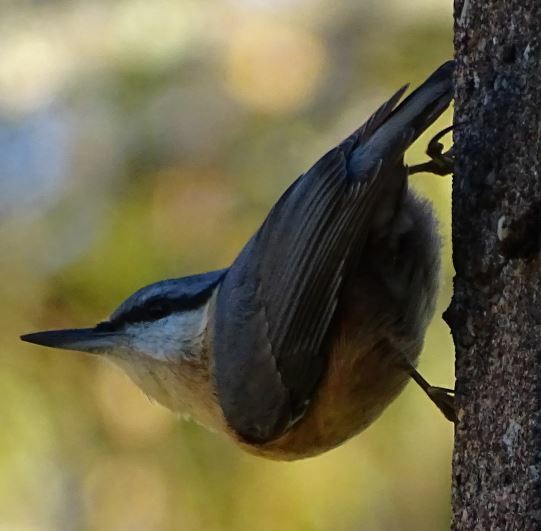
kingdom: Animalia
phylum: Chordata
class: Aves
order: Passeriformes
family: Sittidae
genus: Sitta
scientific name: Sitta europaea
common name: Eurasian nuthatch
